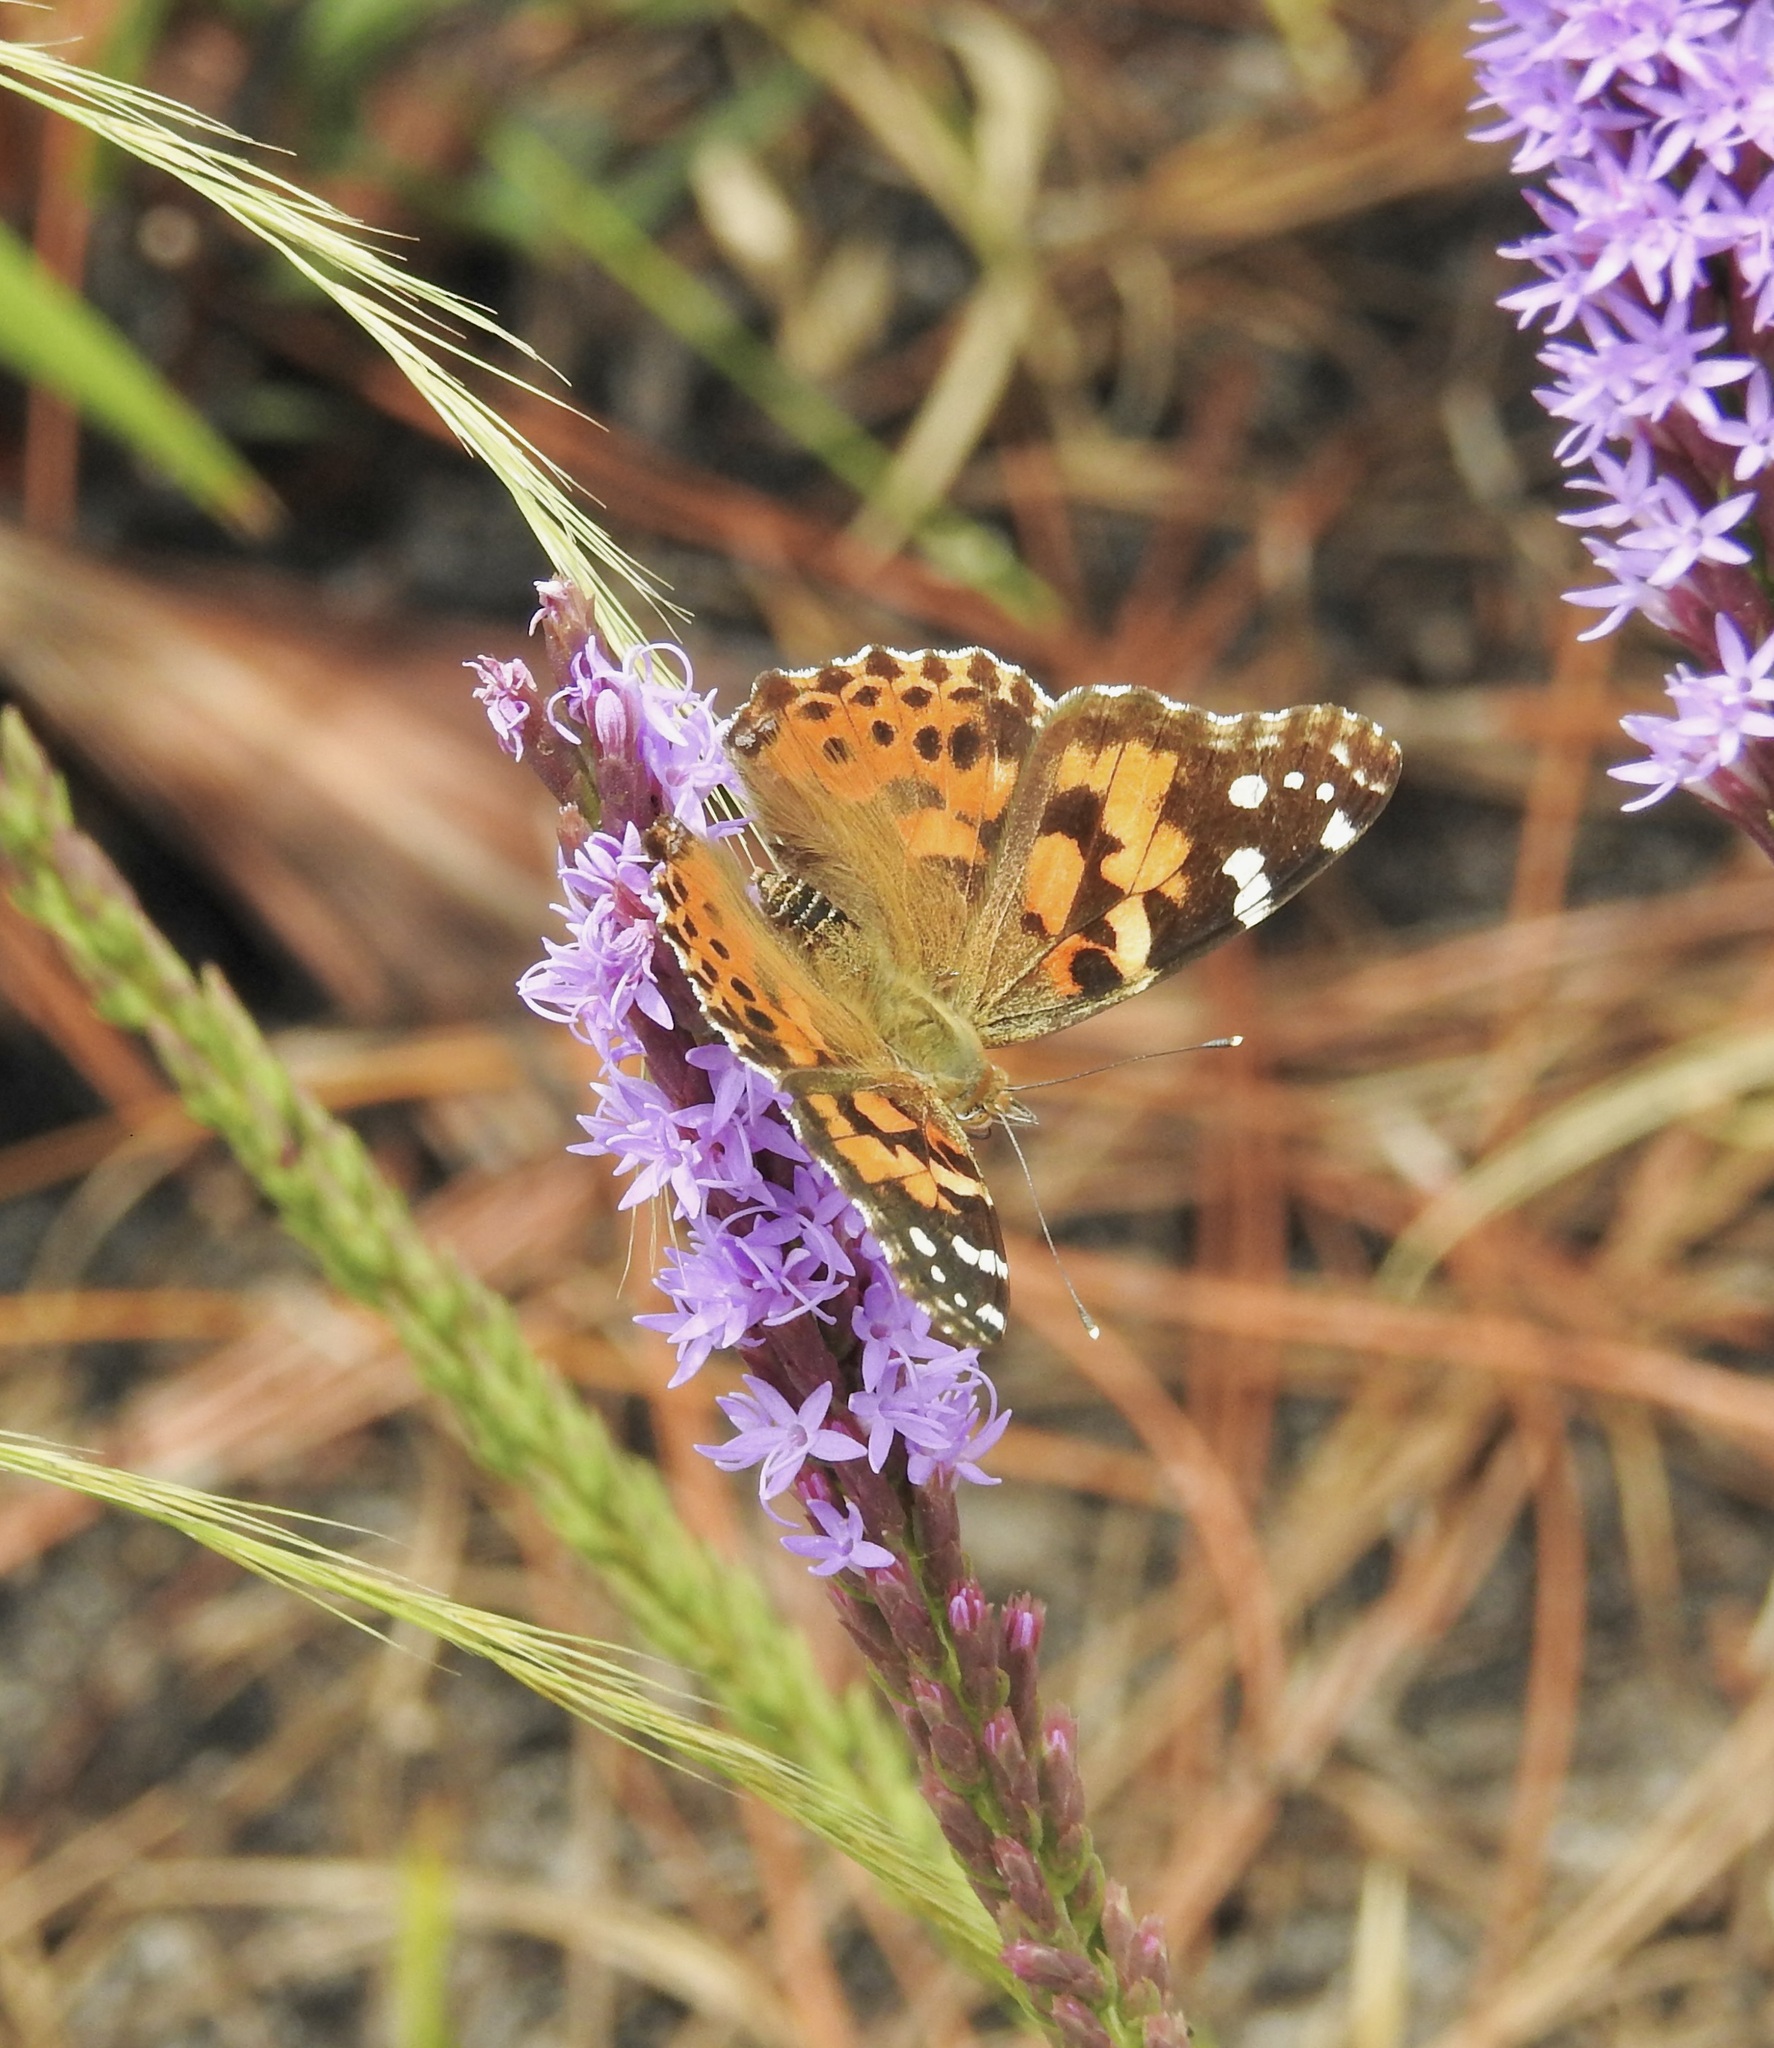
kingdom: Animalia
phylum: Arthropoda
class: Insecta
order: Lepidoptera
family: Nymphalidae
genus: Vanessa
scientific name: Vanessa cardui
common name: Painted lady
